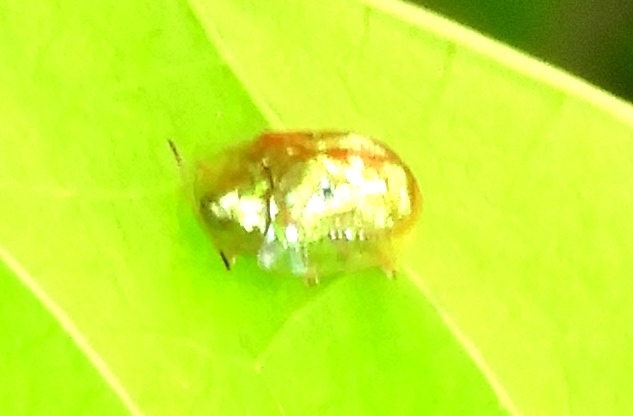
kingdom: Animalia
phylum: Arthropoda
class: Insecta
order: Coleoptera
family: Chrysomelidae
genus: Charidotella
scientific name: Charidotella sexpunctata
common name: Golden tortoise beetle
